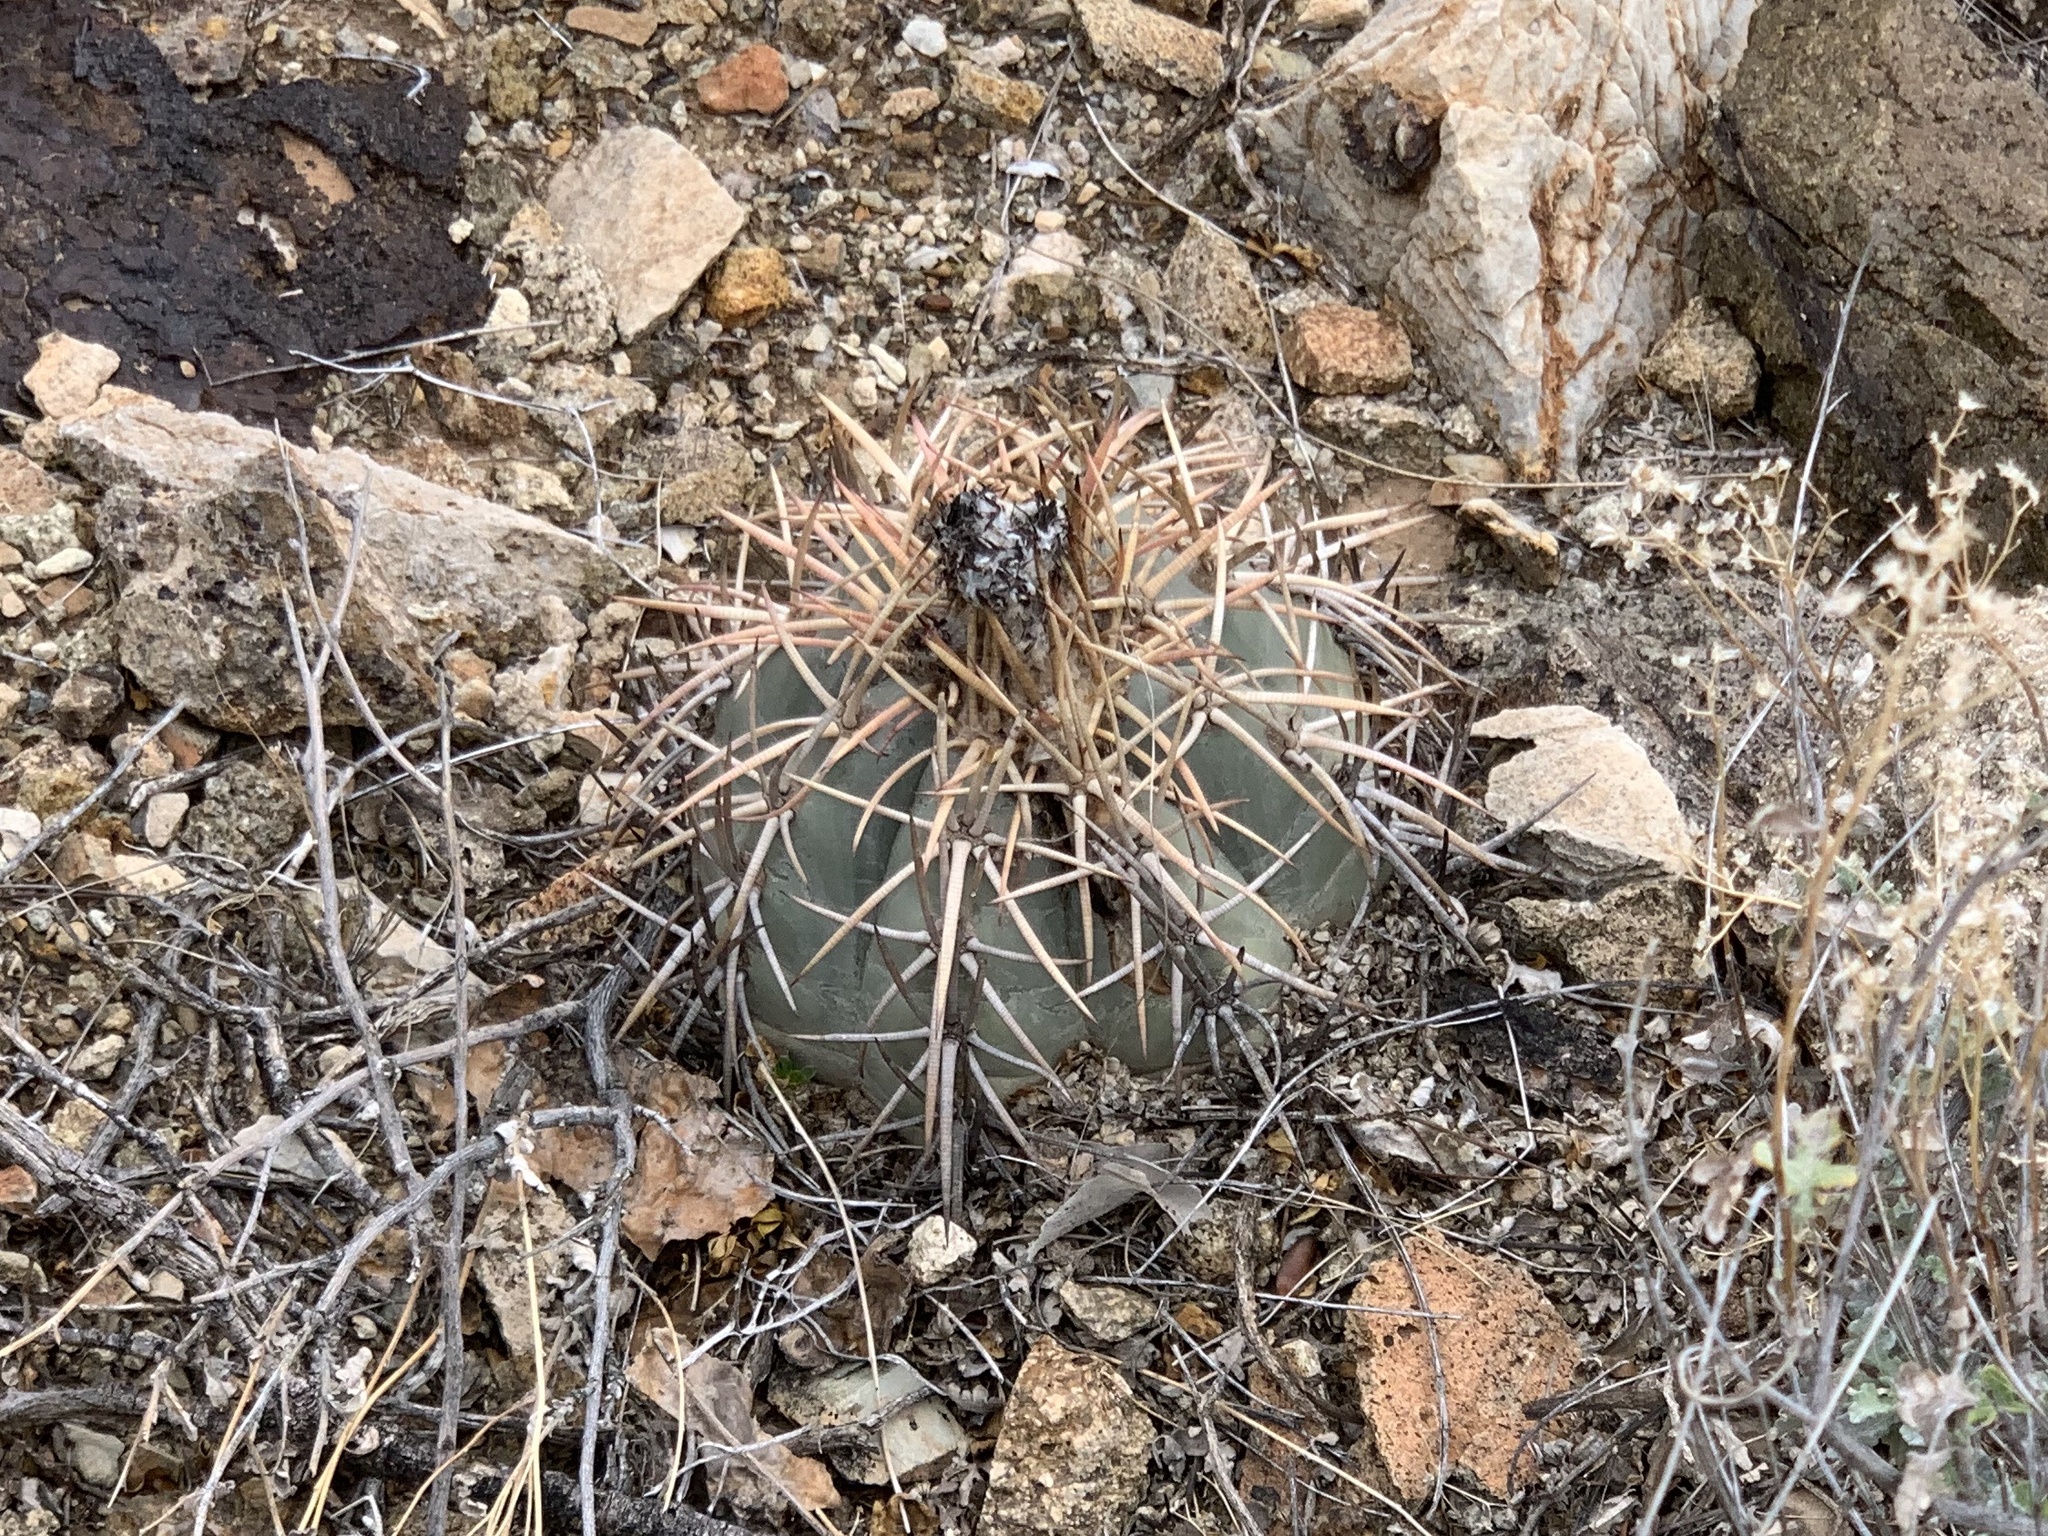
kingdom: Plantae
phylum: Tracheophyta
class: Magnoliopsida
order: Caryophyllales
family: Cactaceae
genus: Echinocactus
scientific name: Echinocactus horizonthalonius
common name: Devilshead
